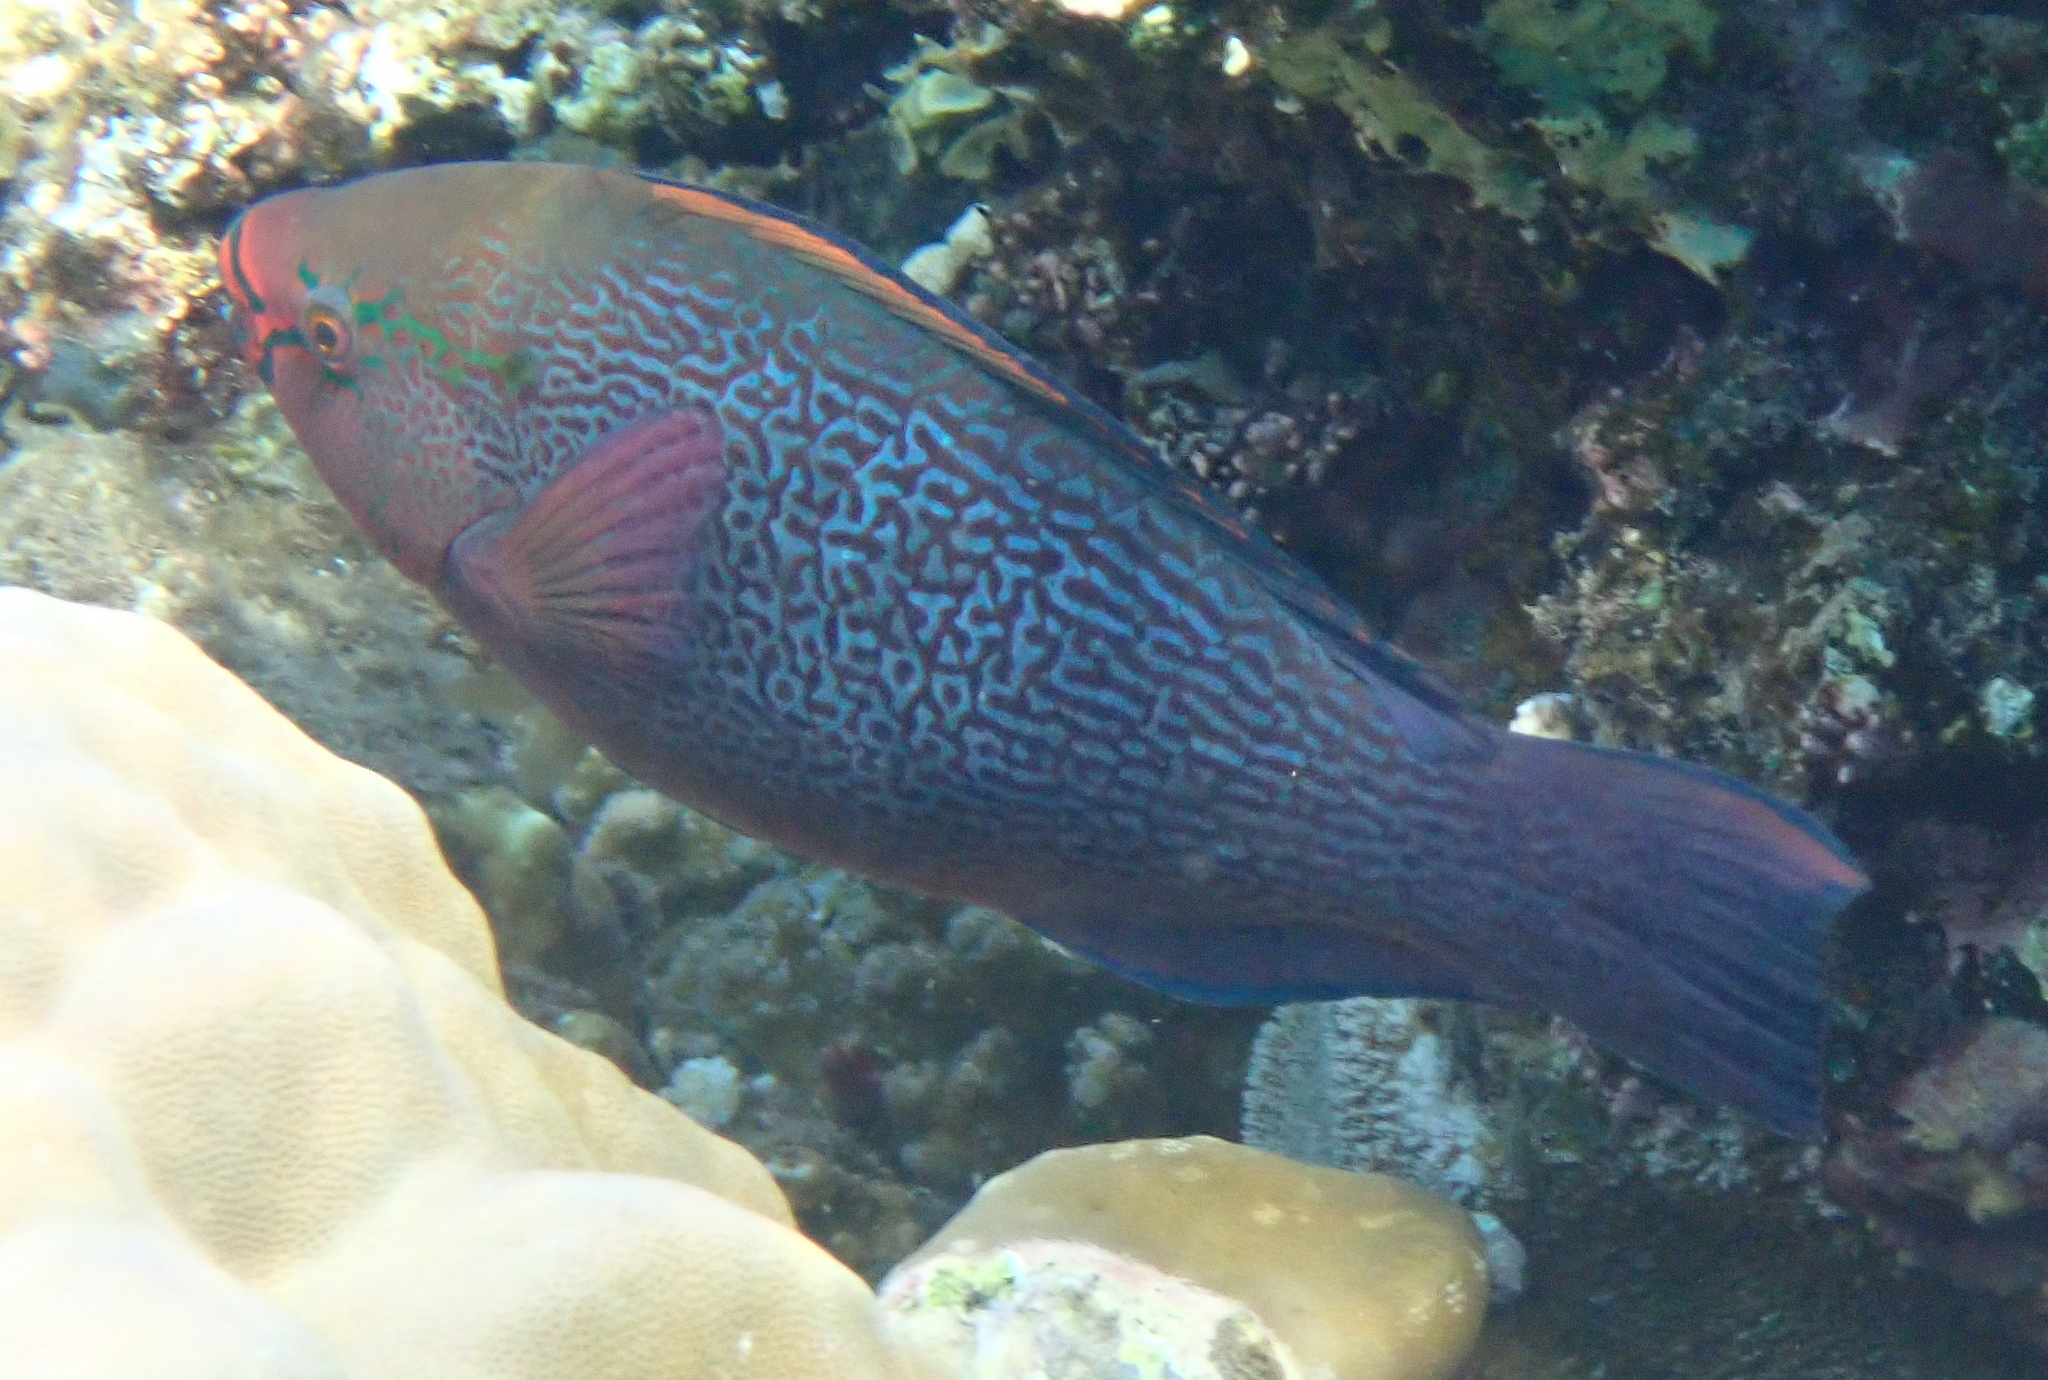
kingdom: Animalia
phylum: Chordata
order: Perciformes
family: Scaridae
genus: Scarus
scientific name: Scarus niger
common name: Dusky parrotfish
